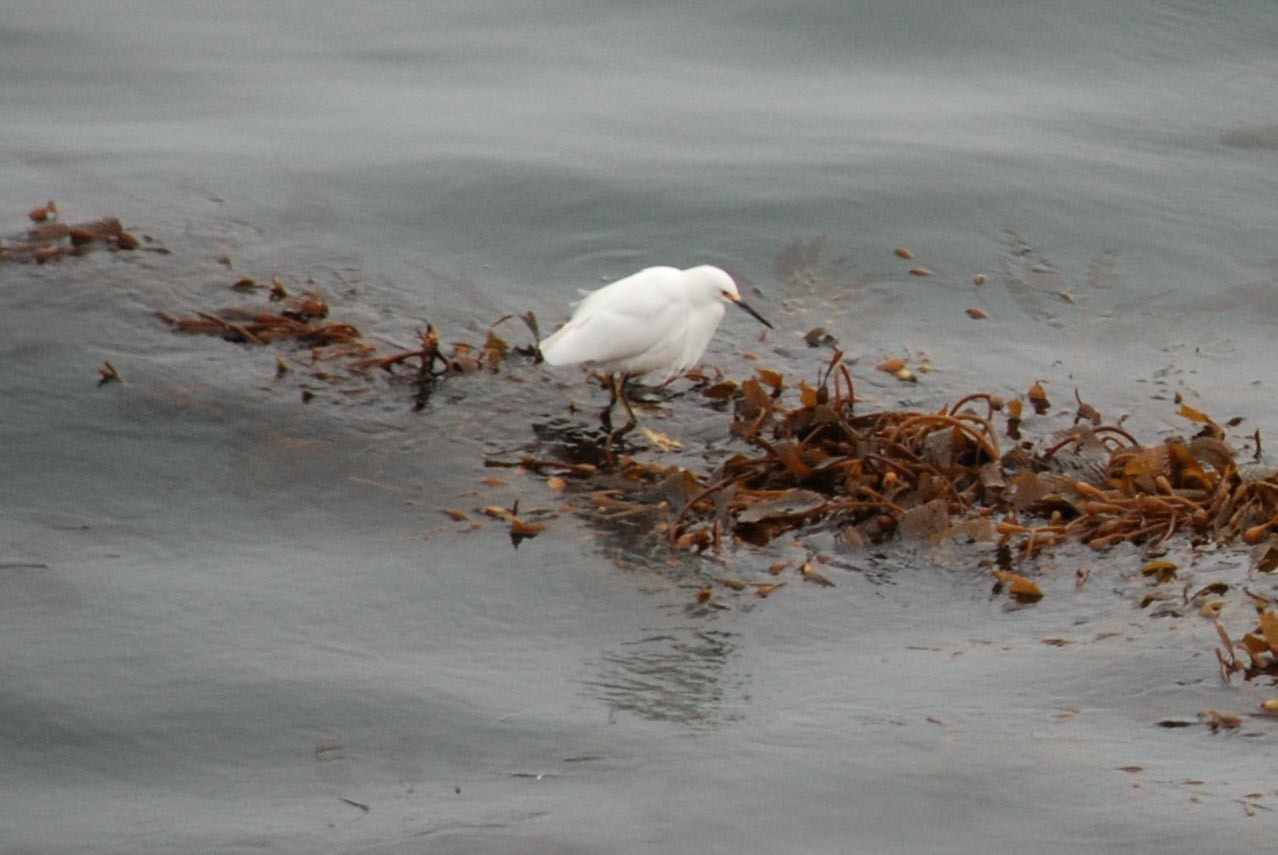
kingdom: Animalia
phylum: Chordata
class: Aves
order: Pelecaniformes
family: Ardeidae
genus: Egretta
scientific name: Egretta thula
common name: Snowy egret
